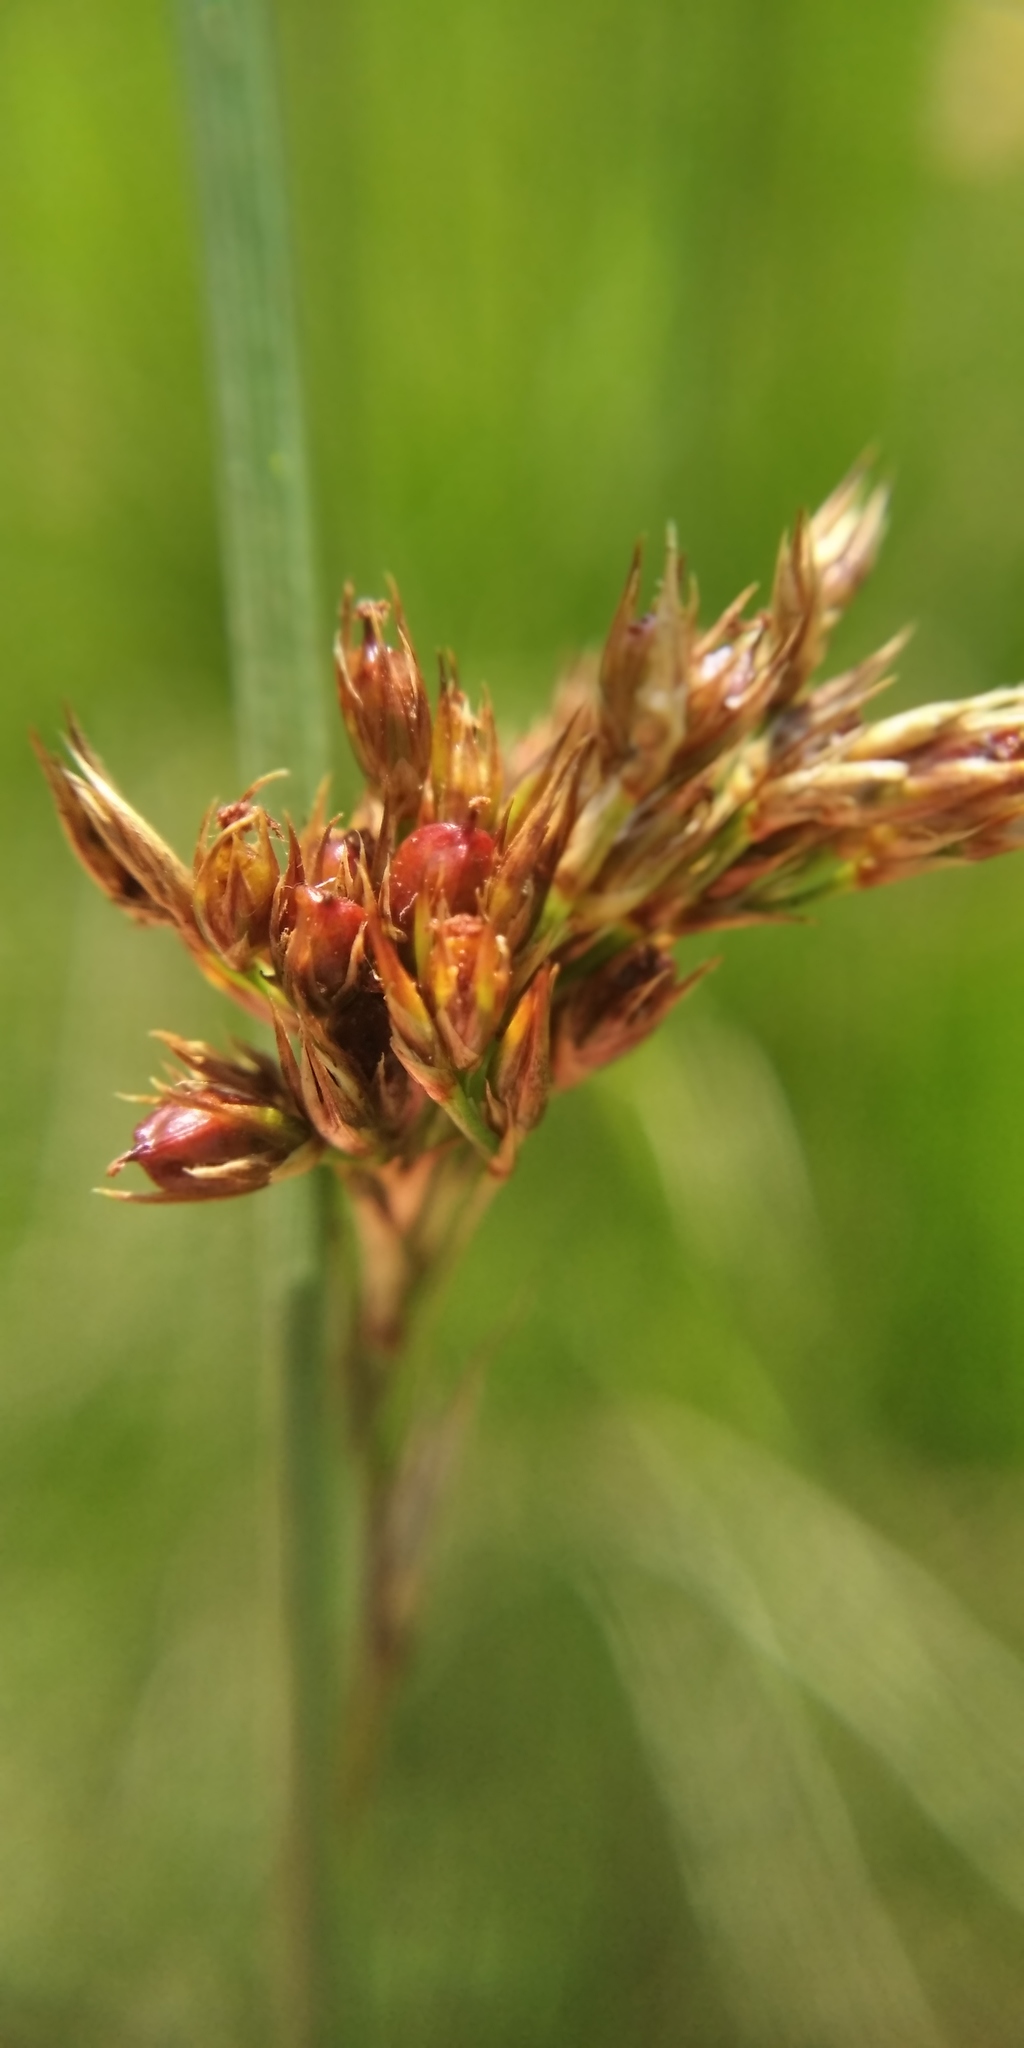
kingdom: Plantae
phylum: Tracheophyta
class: Liliopsida
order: Poales
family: Juncaceae
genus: Juncus
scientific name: Juncus inflexus
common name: Hard rush
